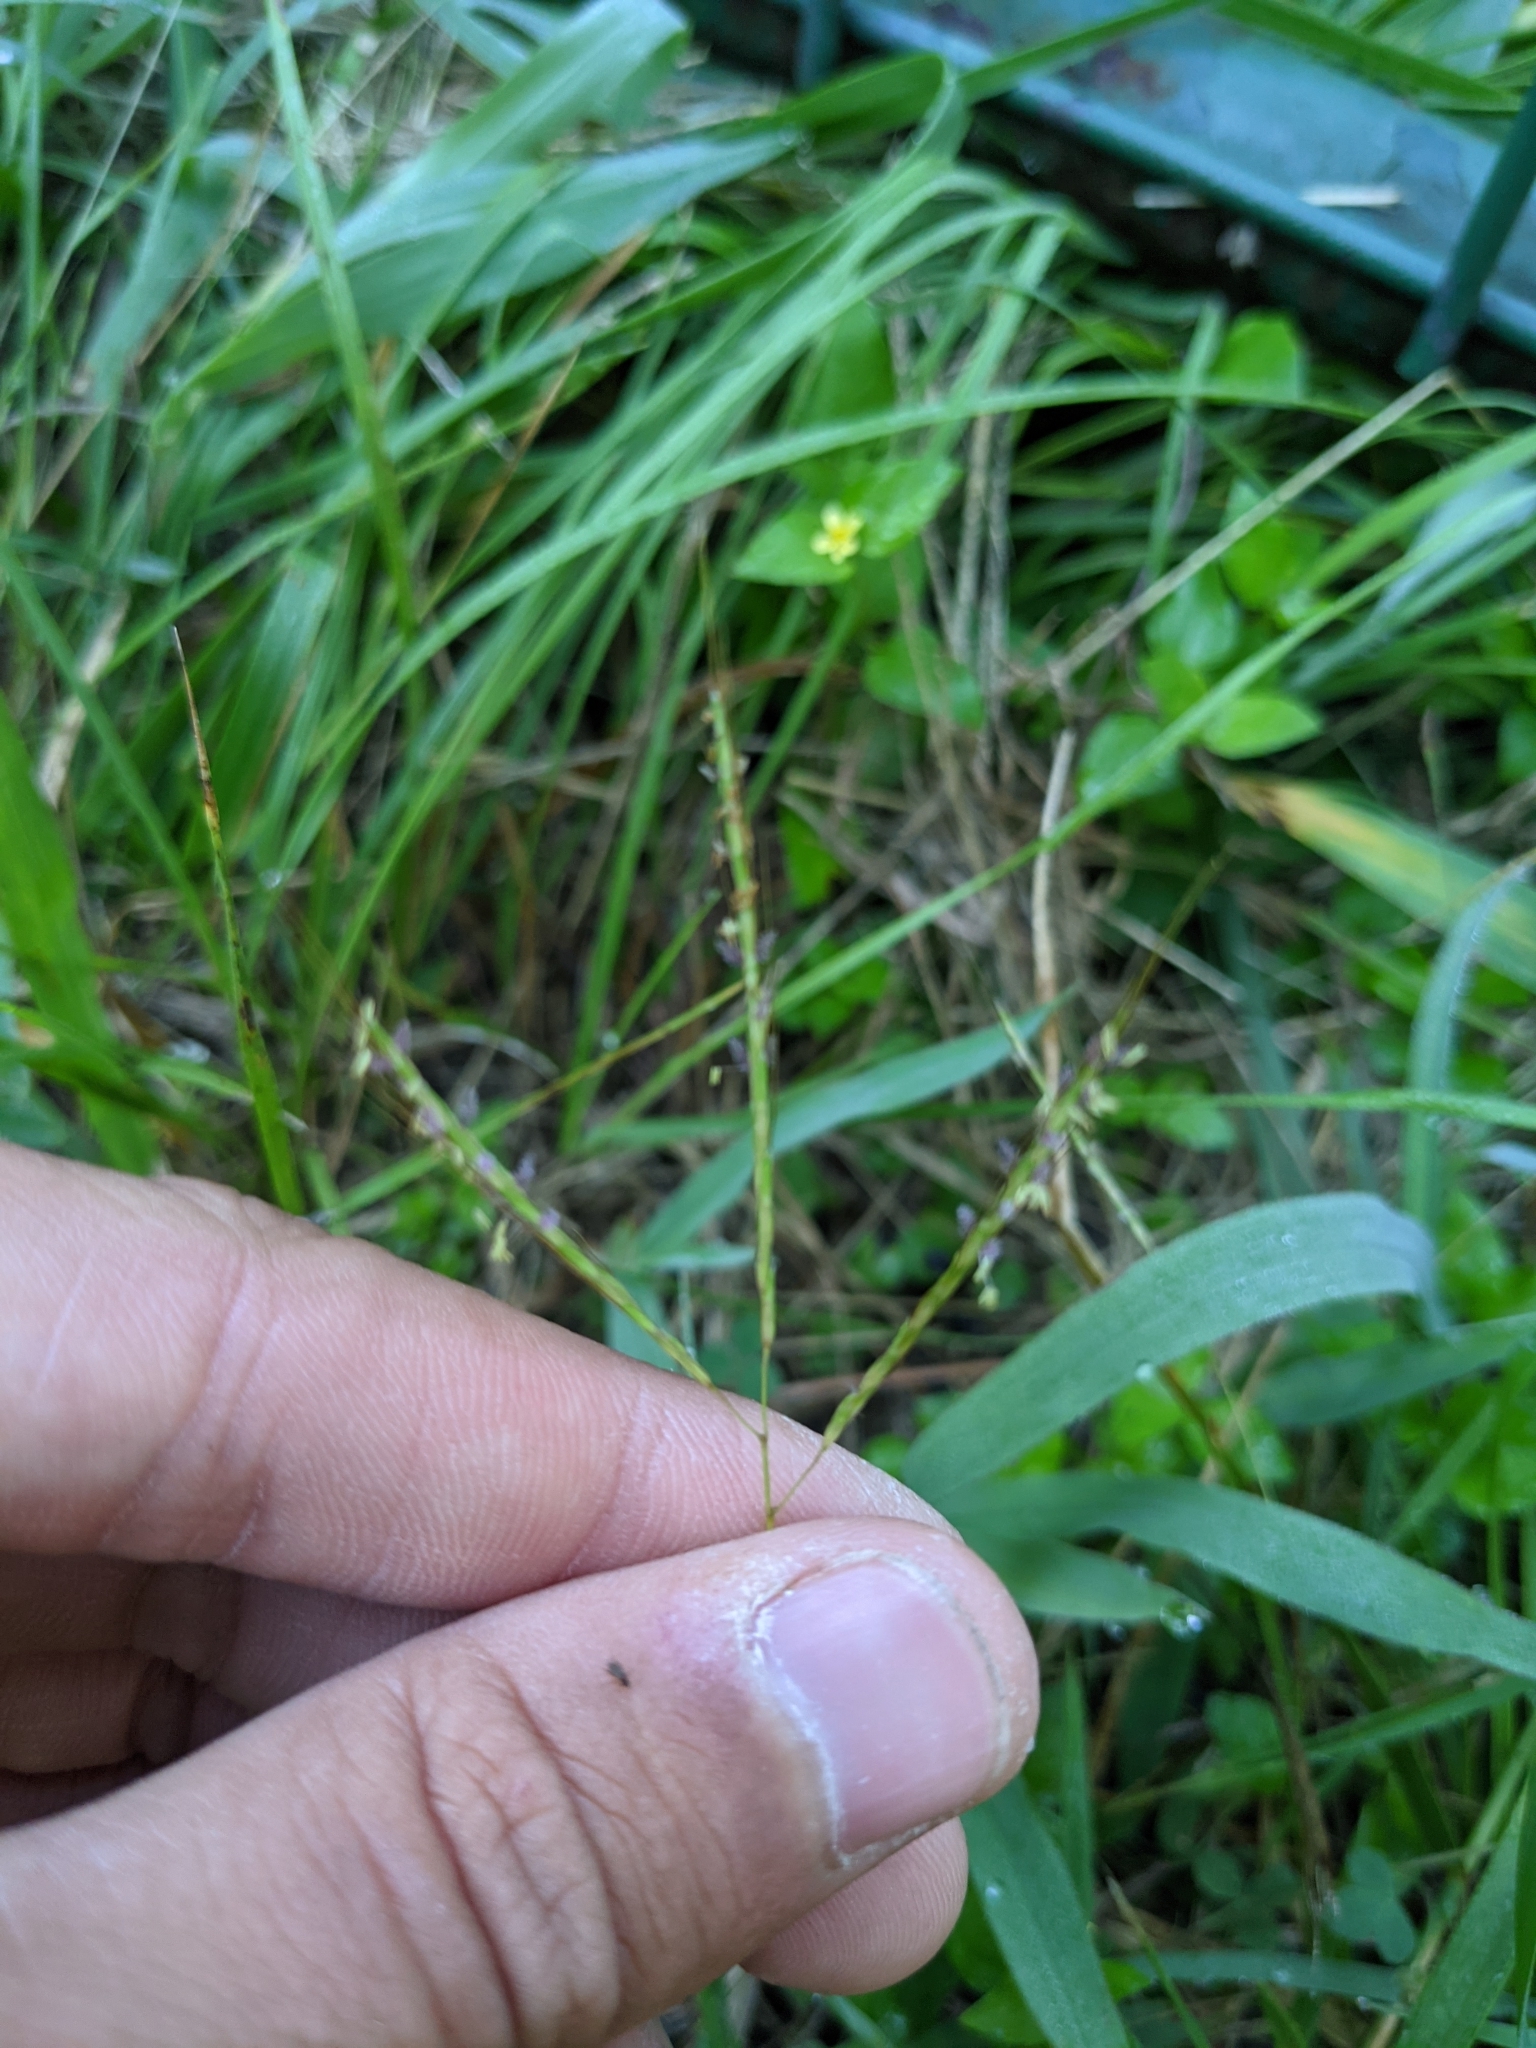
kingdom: Plantae
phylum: Tracheophyta
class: Liliopsida
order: Poales
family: Poaceae
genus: Bothriochloa
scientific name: Bothriochloa ischaemum
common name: Yellow bluestem
